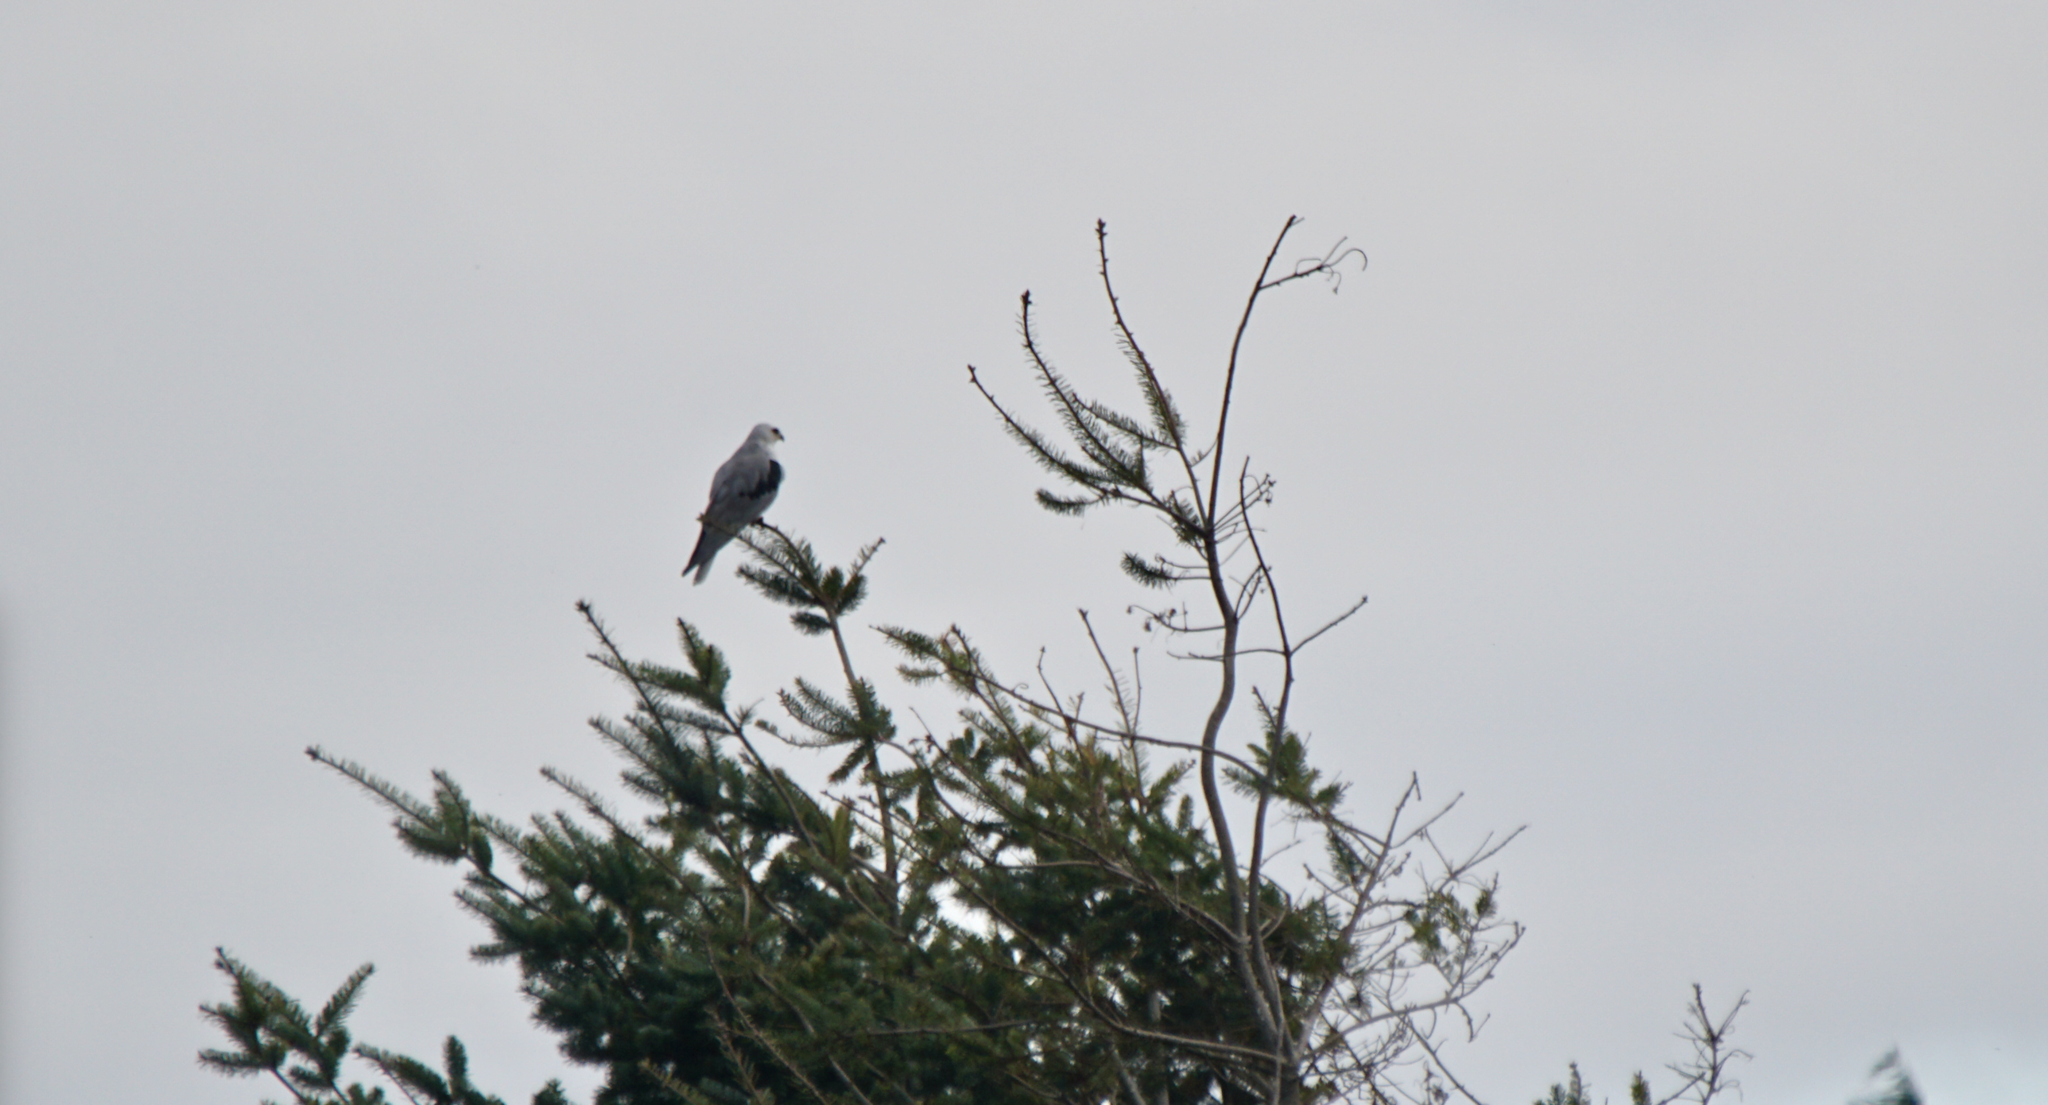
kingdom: Animalia
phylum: Chordata
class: Aves
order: Accipitriformes
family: Accipitridae
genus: Elanus
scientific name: Elanus leucurus
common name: White-tailed kite
